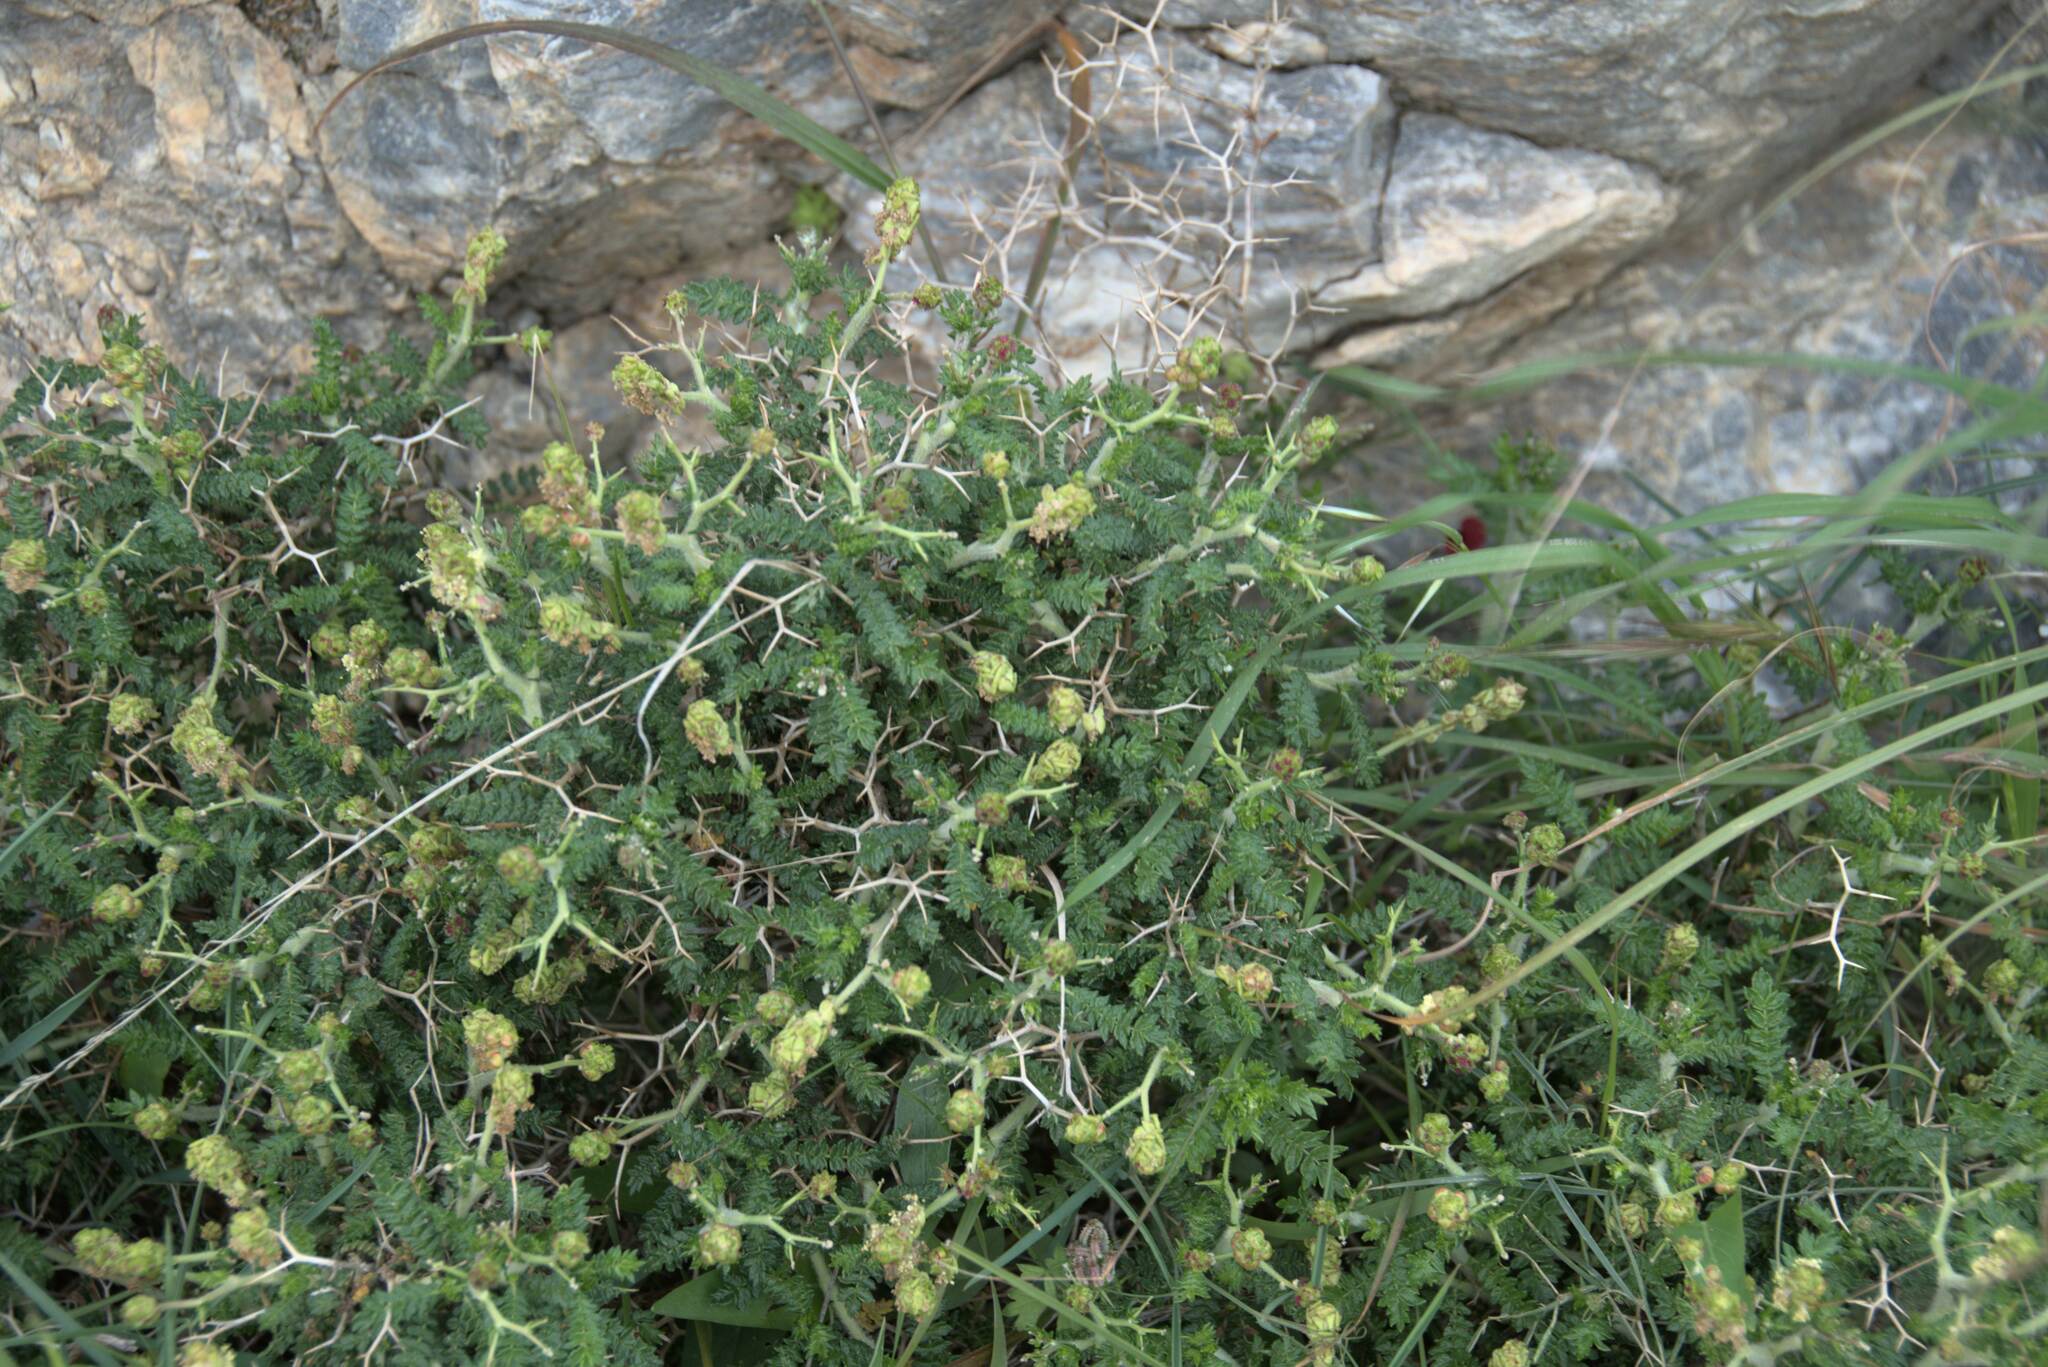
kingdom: Plantae
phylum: Tracheophyta
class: Magnoliopsida
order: Rosales
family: Rosaceae
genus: Sarcopoterium
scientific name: Sarcopoterium spinosum
